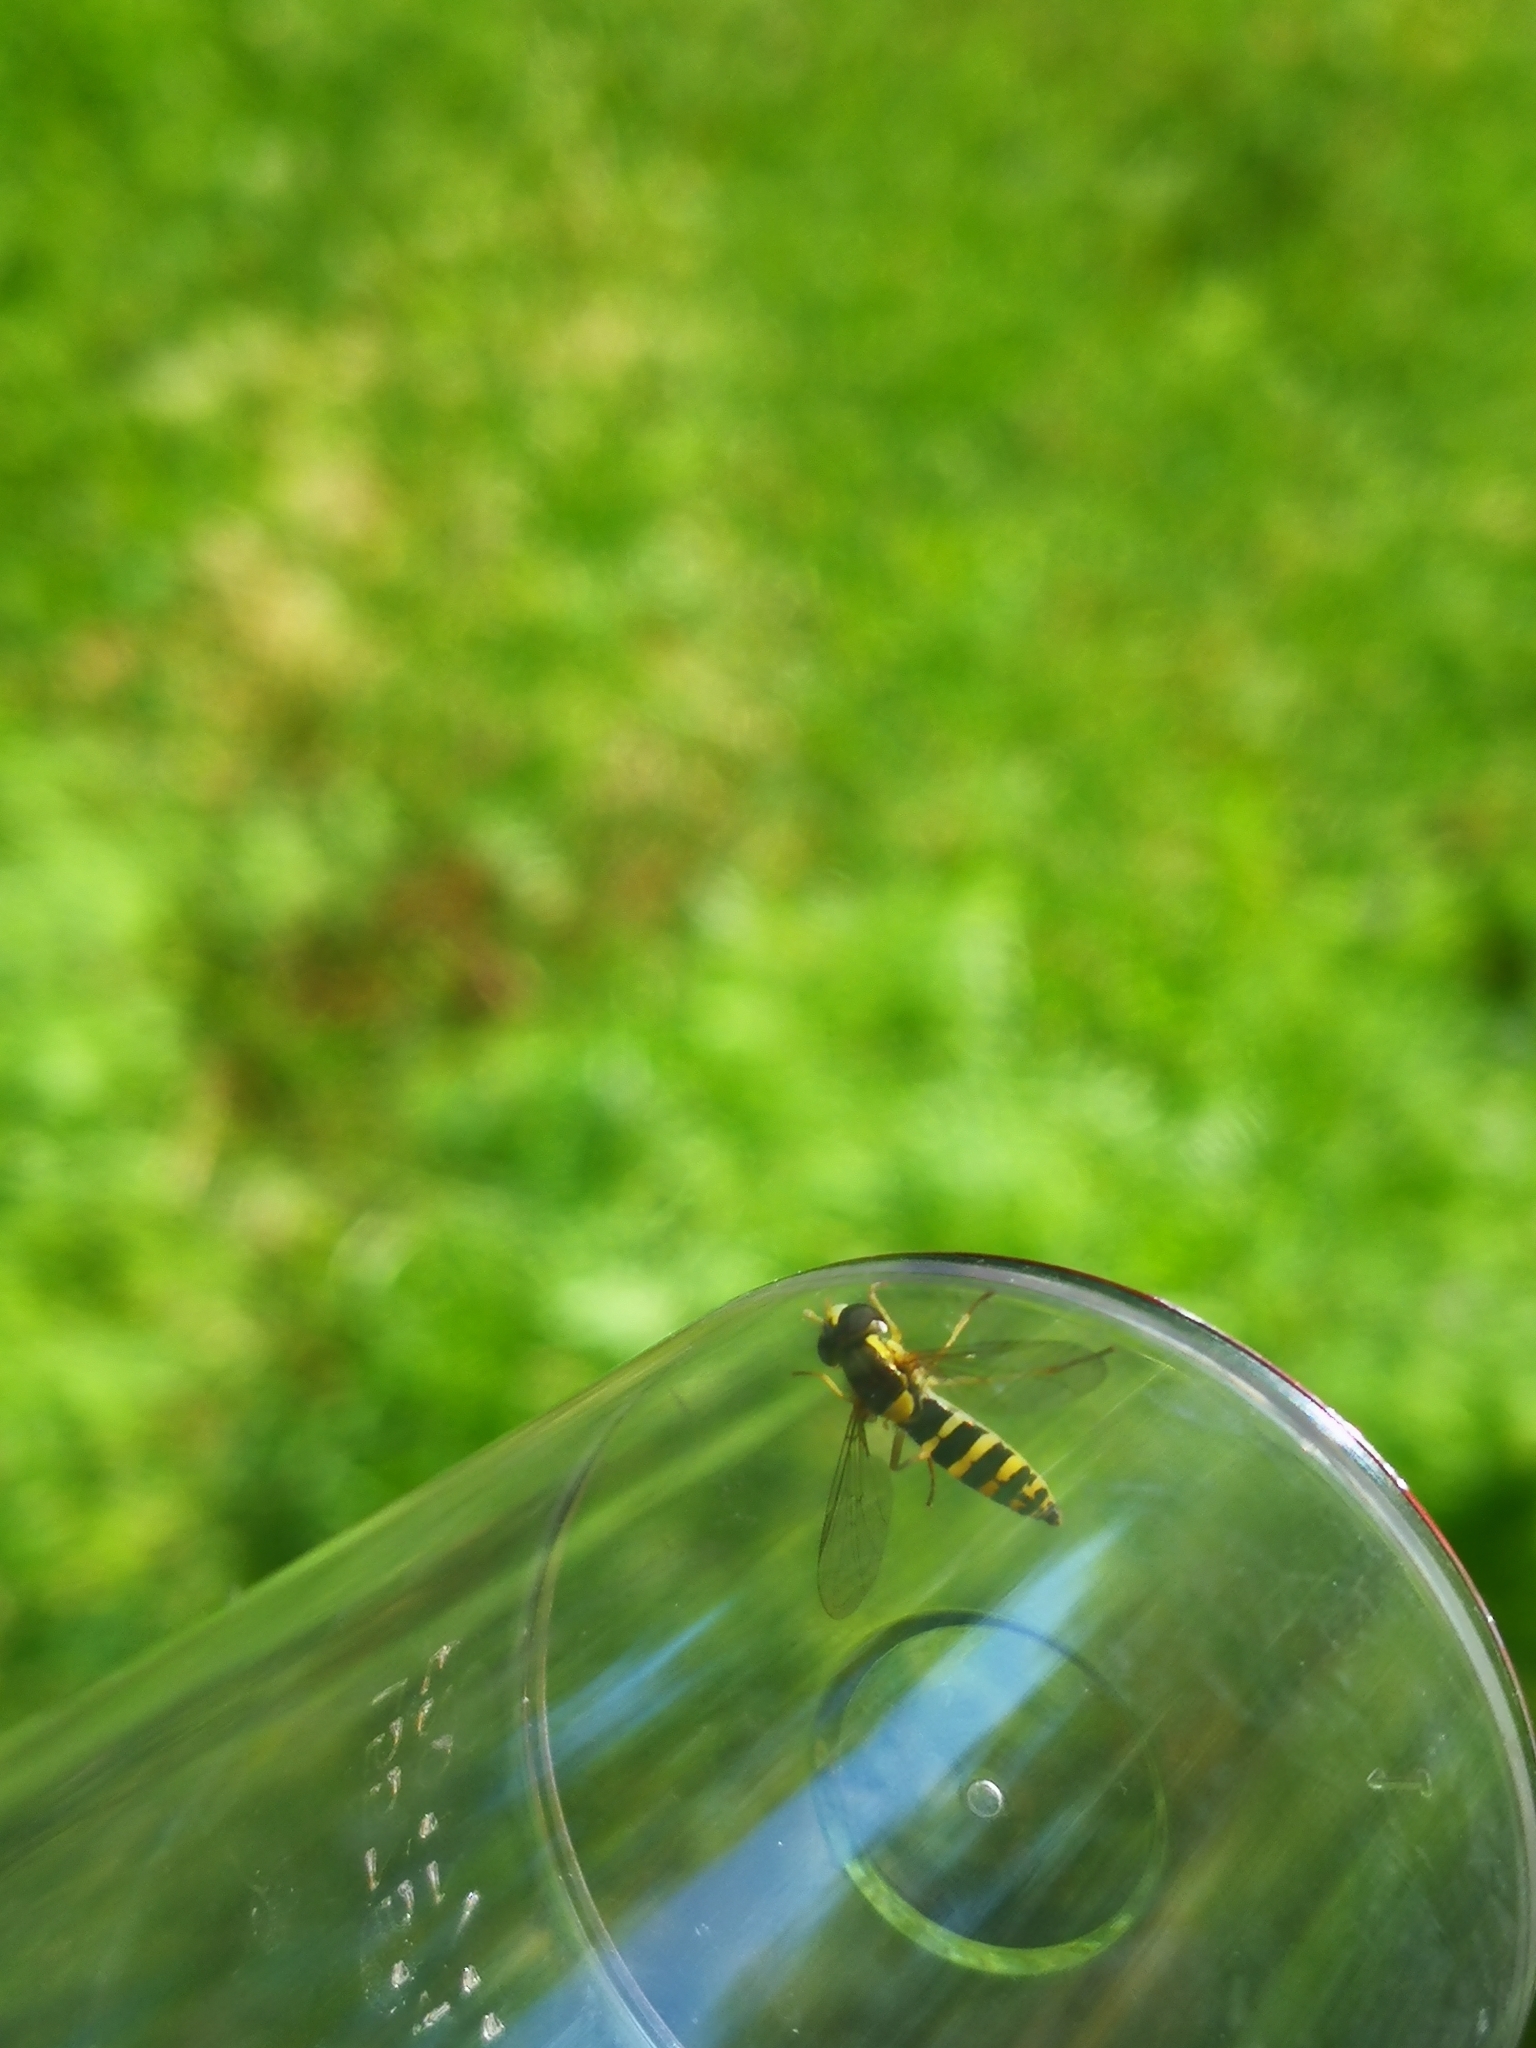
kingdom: Animalia
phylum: Arthropoda
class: Insecta
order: Diptera
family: Syrphidae
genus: Sphaerophoria
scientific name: Sphaerophoria
